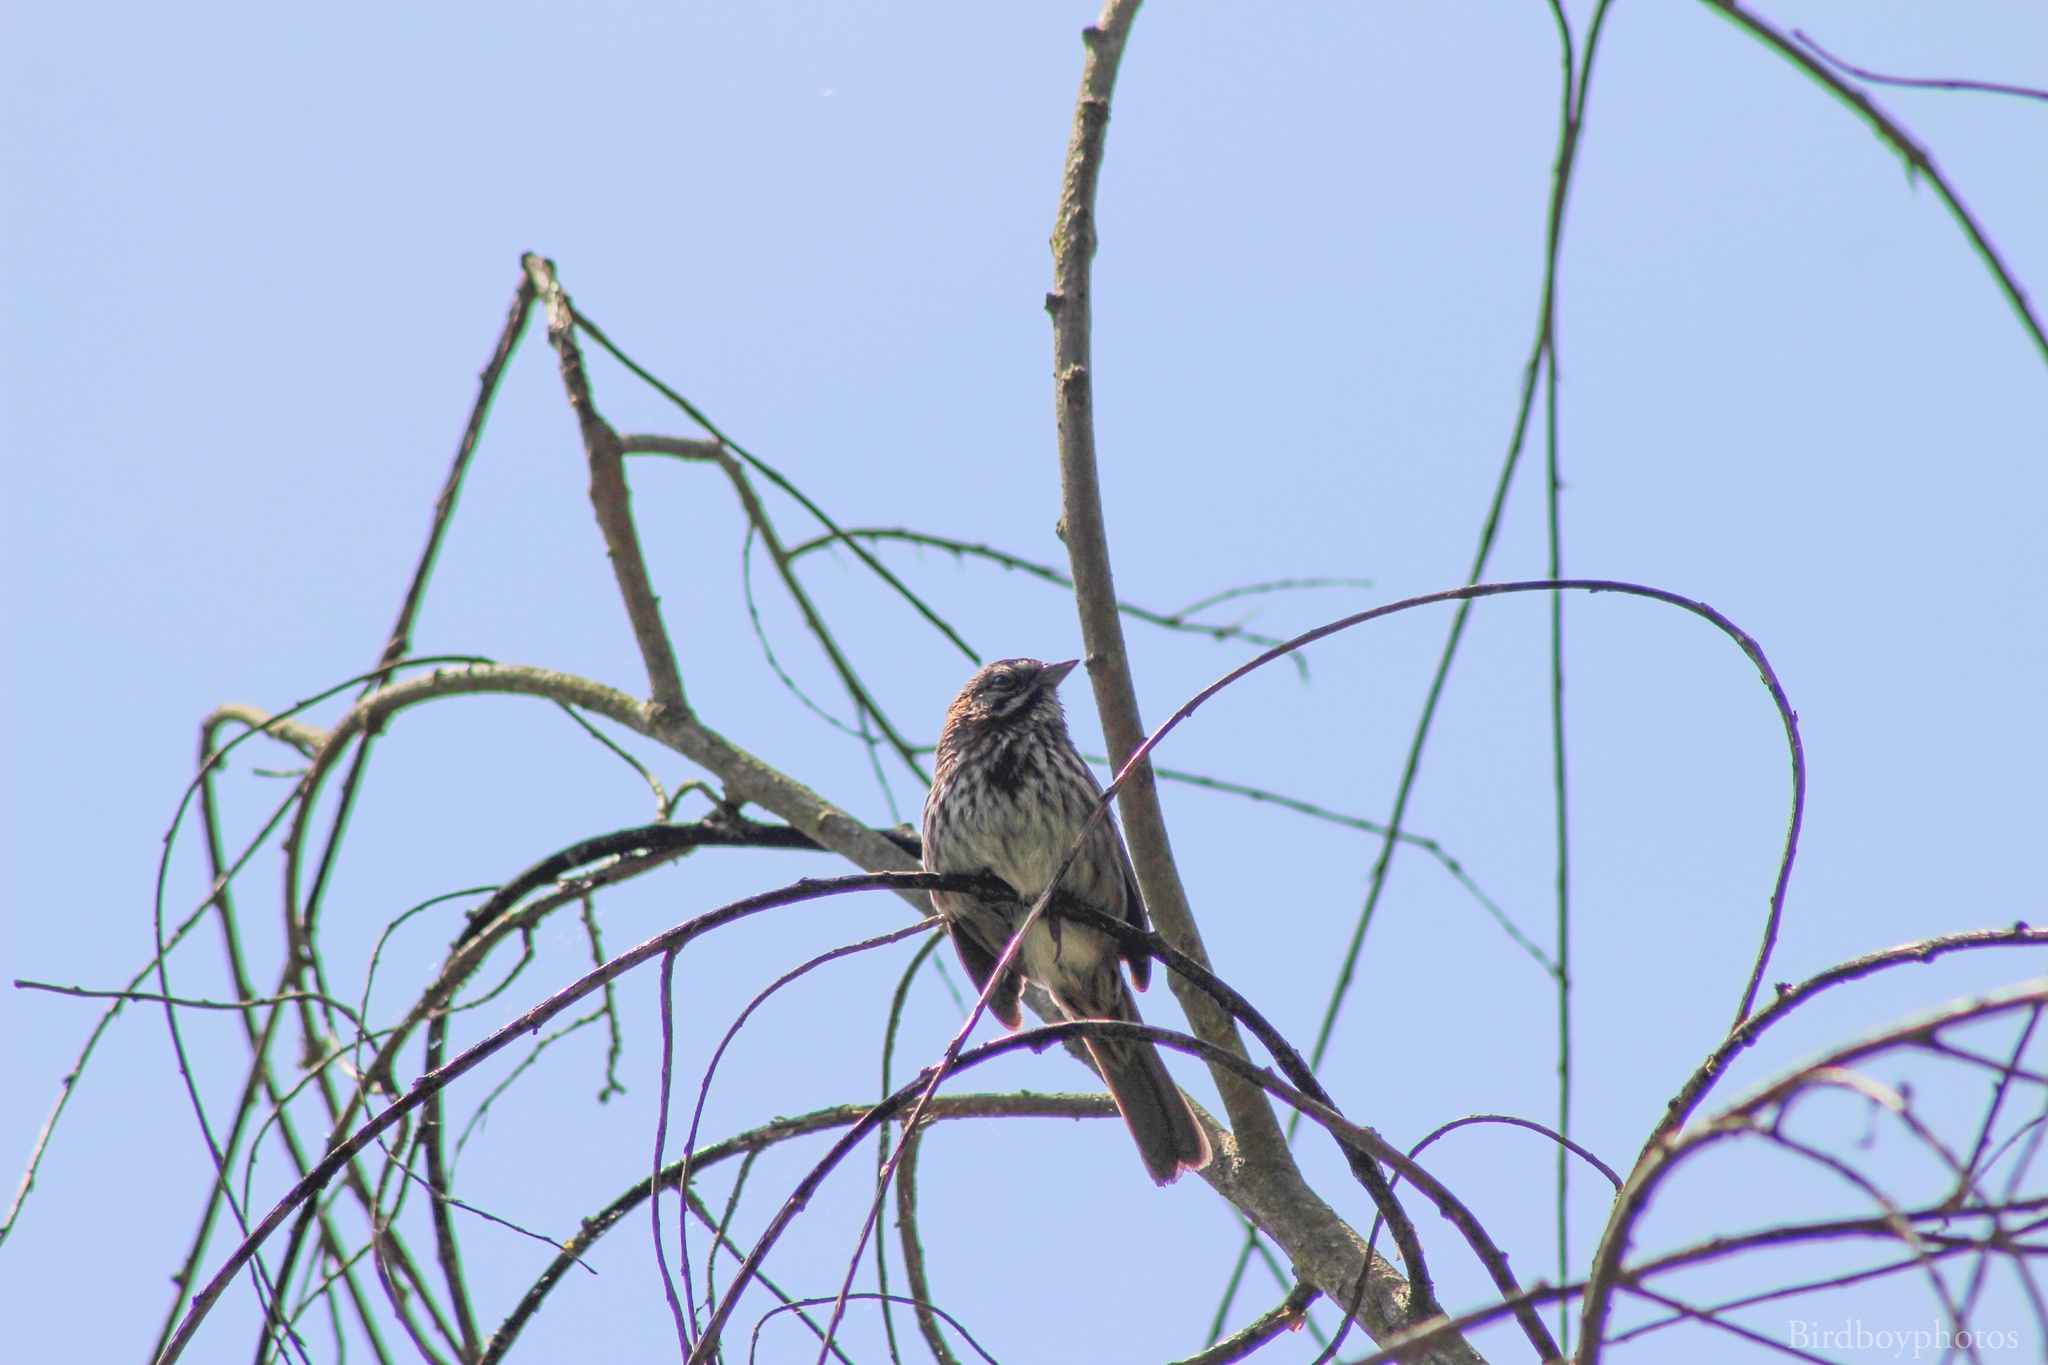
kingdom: Animalia
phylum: Chordata
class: Aves
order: Passeriformes
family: Passerellidae
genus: Melospiza
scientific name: Melospiza melodia
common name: Song sparrow
